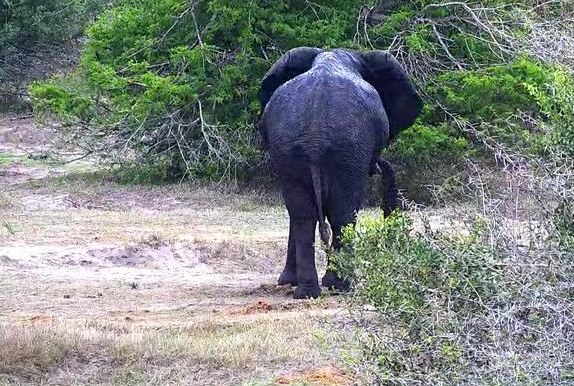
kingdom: Animalia
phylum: Chordata
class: Mammalia
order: Proboscidea
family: Elephantidae
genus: Loxodonta
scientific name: Loxodonta africana
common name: African elephant
